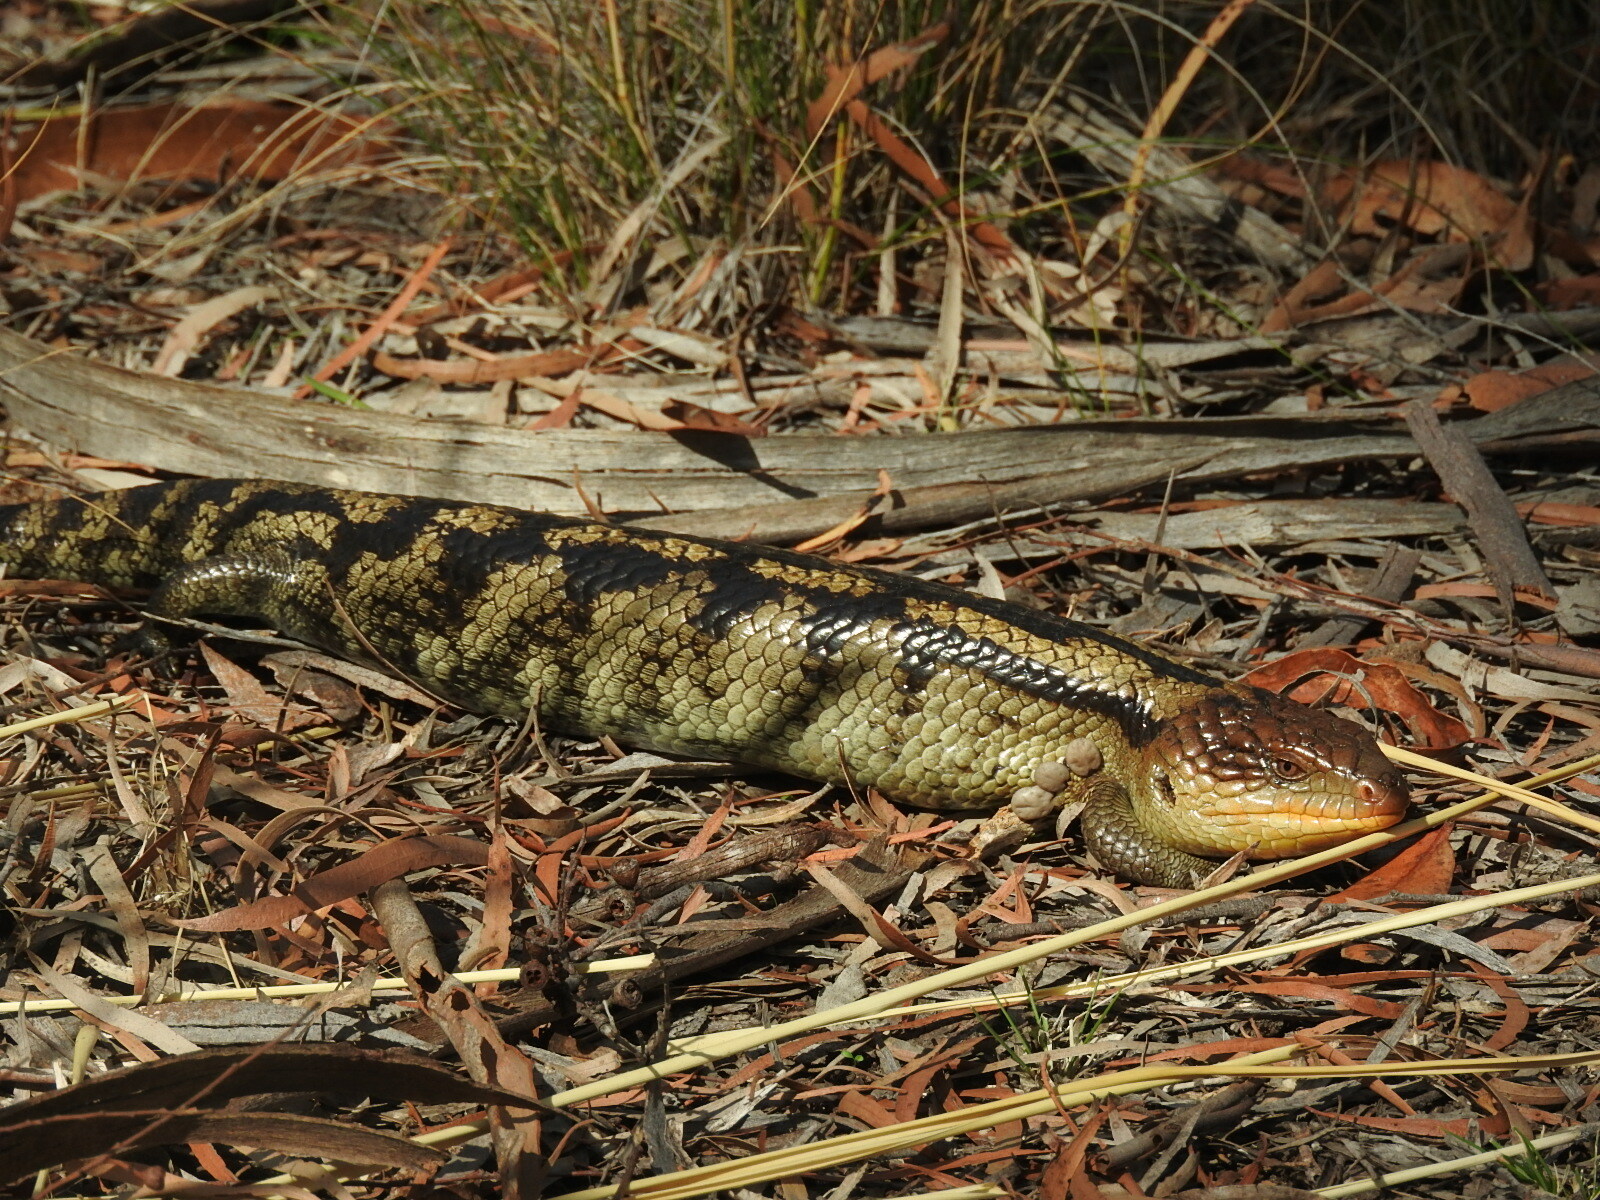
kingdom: Animalia
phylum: Chordata
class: Squamata
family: Scincidae
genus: Tiliqua
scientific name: Tiliqua nigrolutea
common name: Blotched blue-tongued lizard
